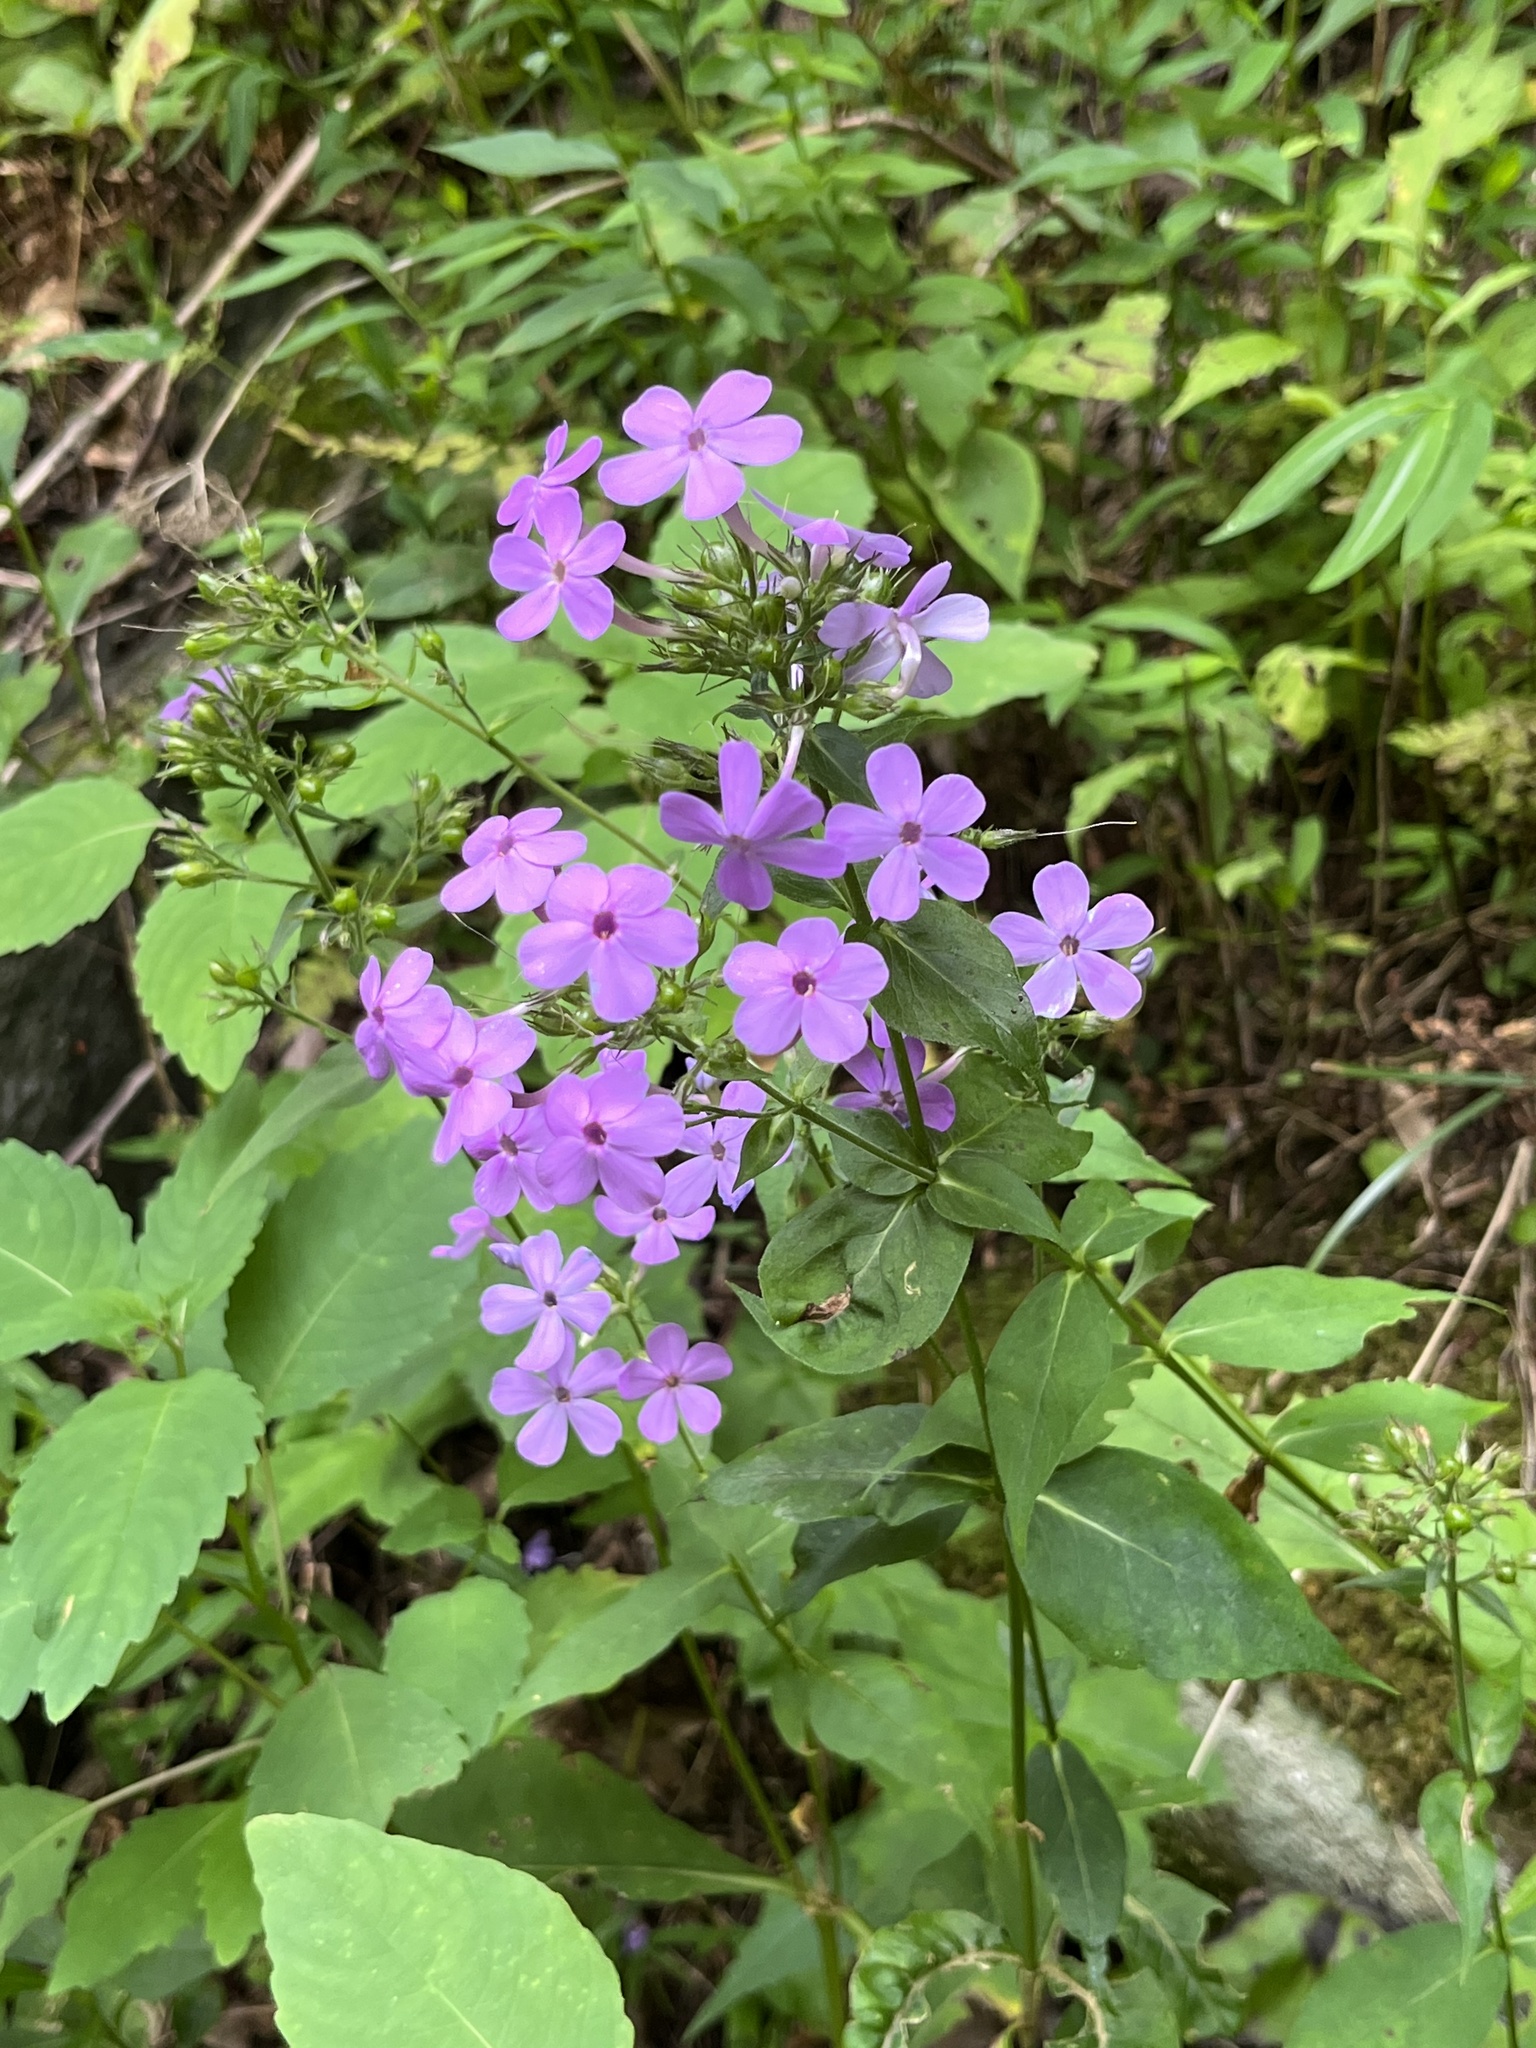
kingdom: Plantae
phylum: Tracheophyta
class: Magnoliopsida
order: Ericales
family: Polemoniaceae
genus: Phlox
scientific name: Phlox paniculata
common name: Fall phlox
